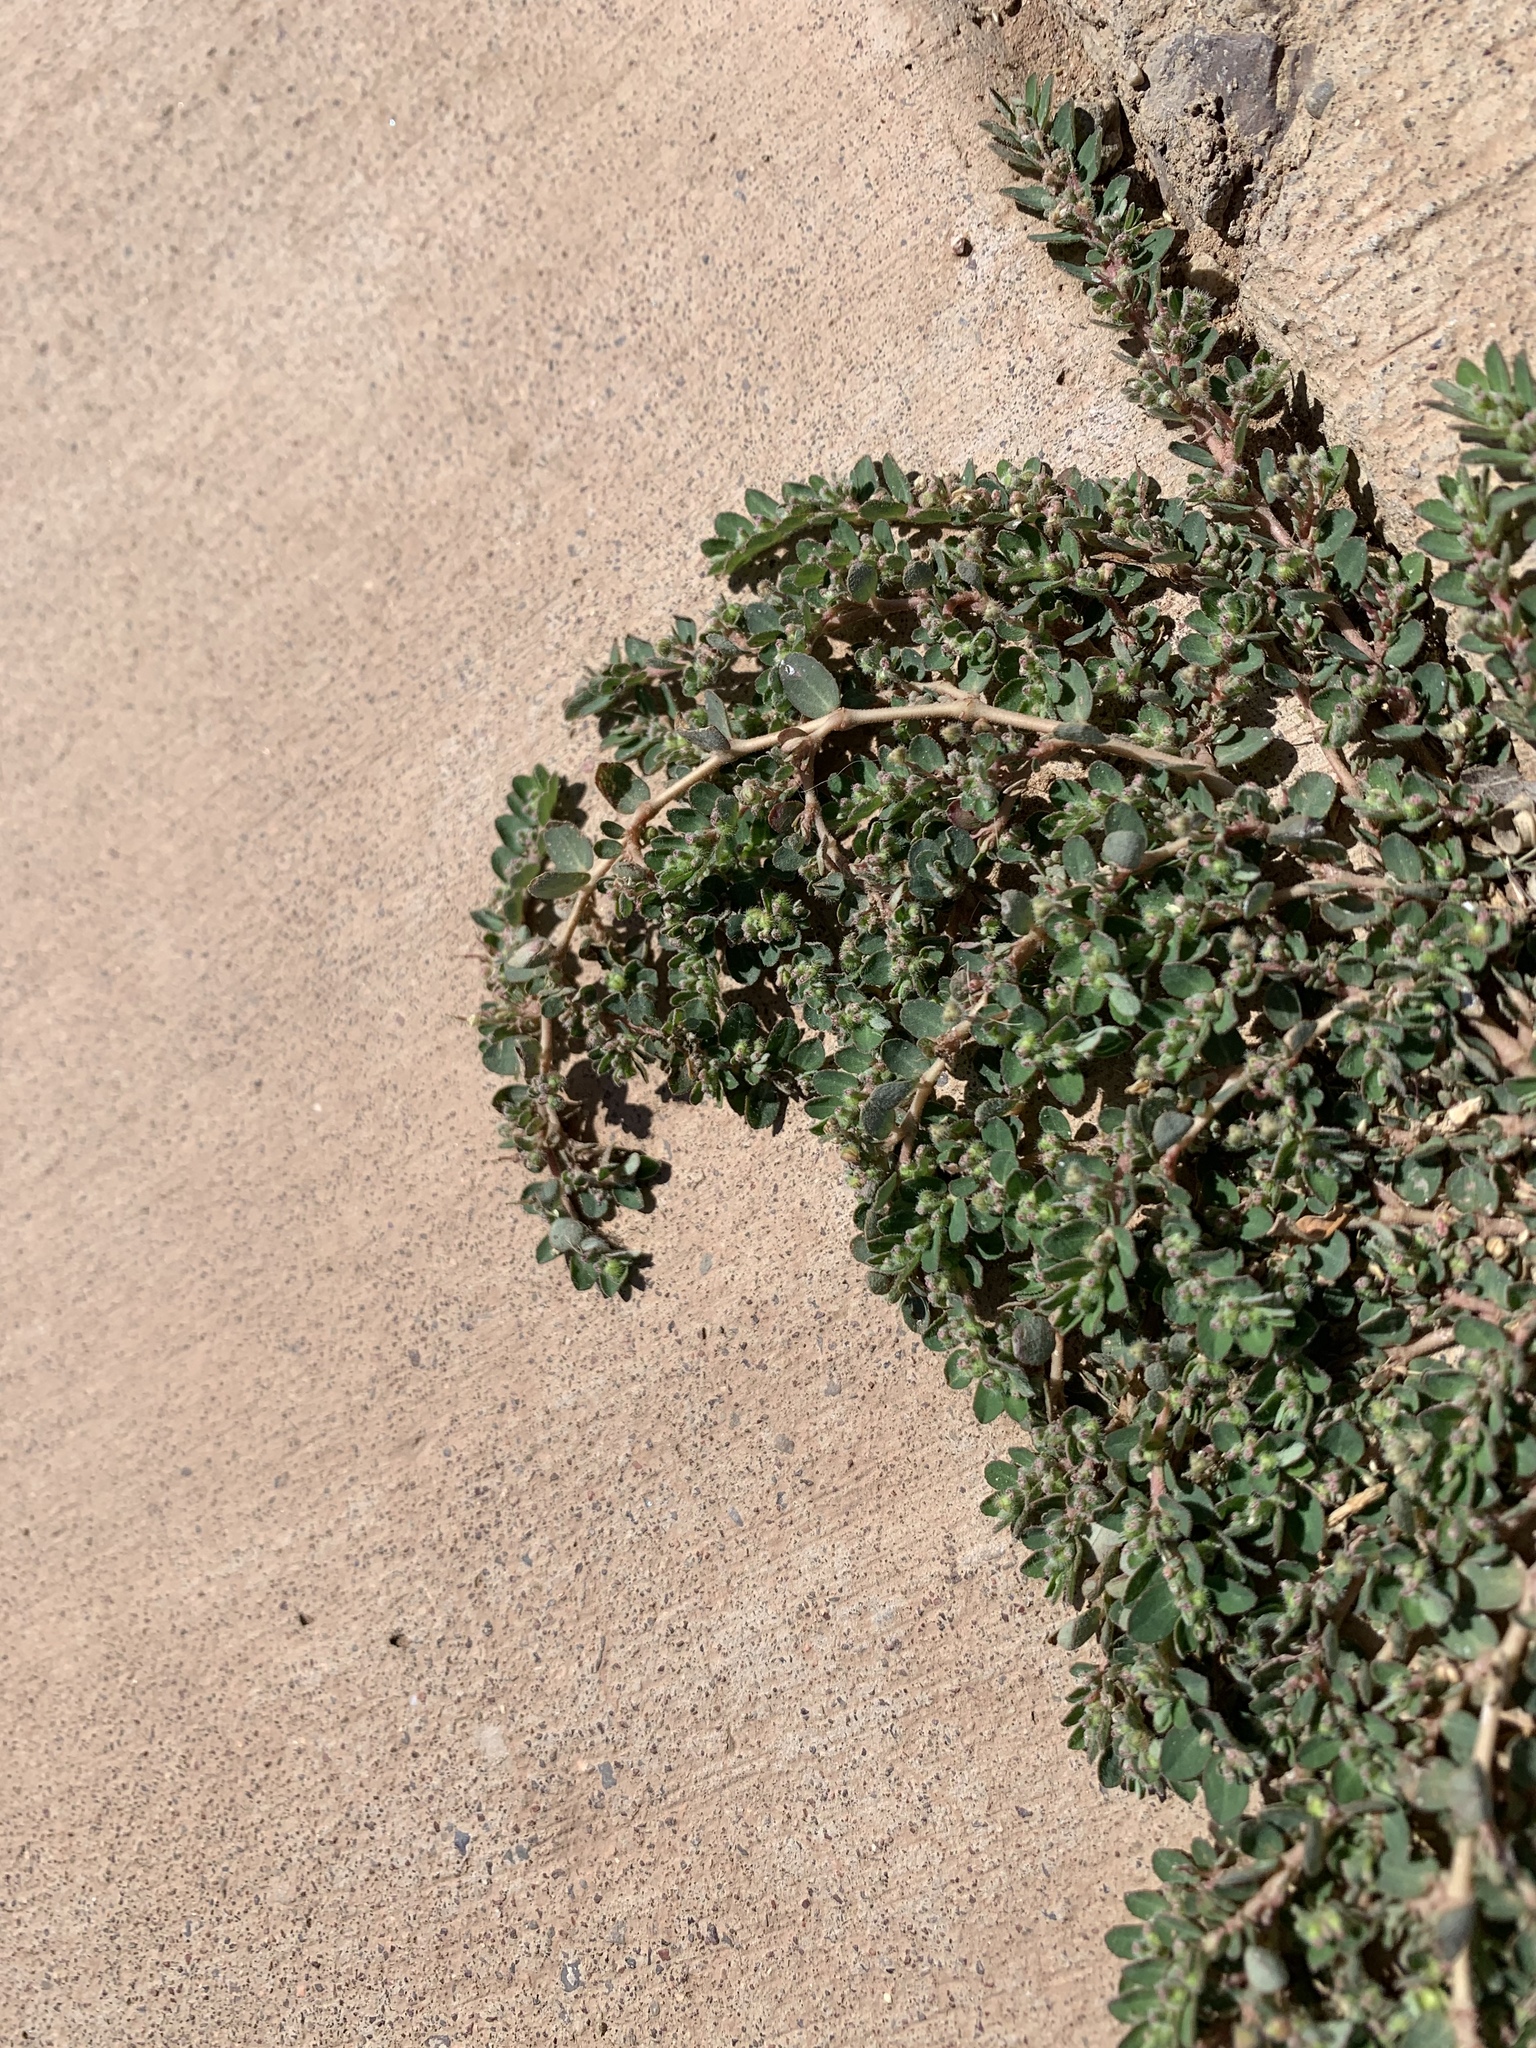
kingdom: Plantae
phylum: Tracheophyta
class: Magnoliopsida
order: Malpighiales
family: Euphorbiaceae
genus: Euphorbia
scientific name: Euphorbia prostrata
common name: Prostrate sandmat
